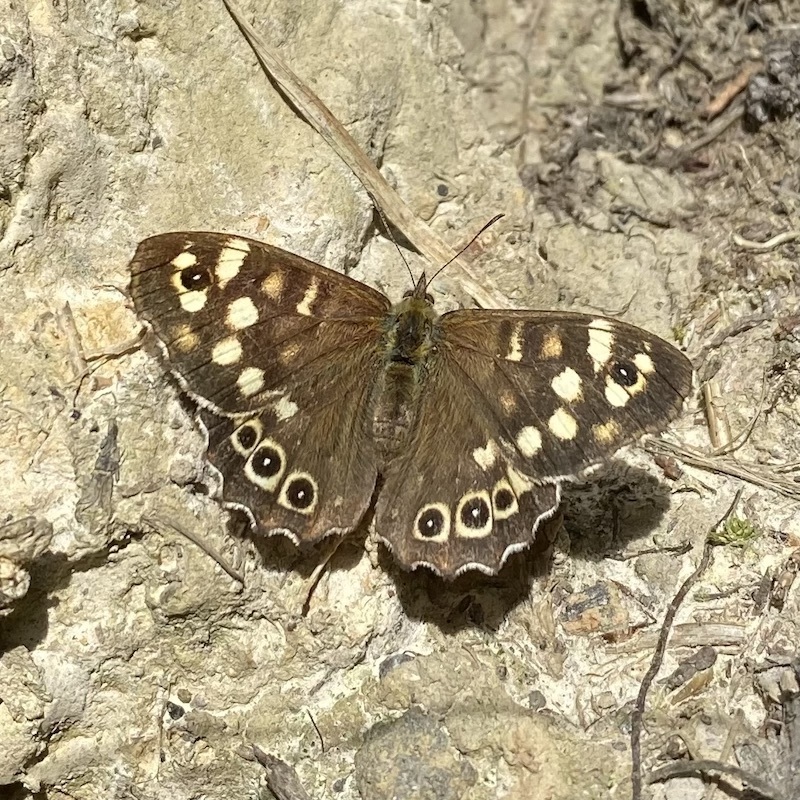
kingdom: Animalia
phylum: Arthropoda
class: Insecta
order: Lepidoptera
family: Nymphalidae
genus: Pararge
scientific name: Pararge aegeria
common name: Speckled wood
